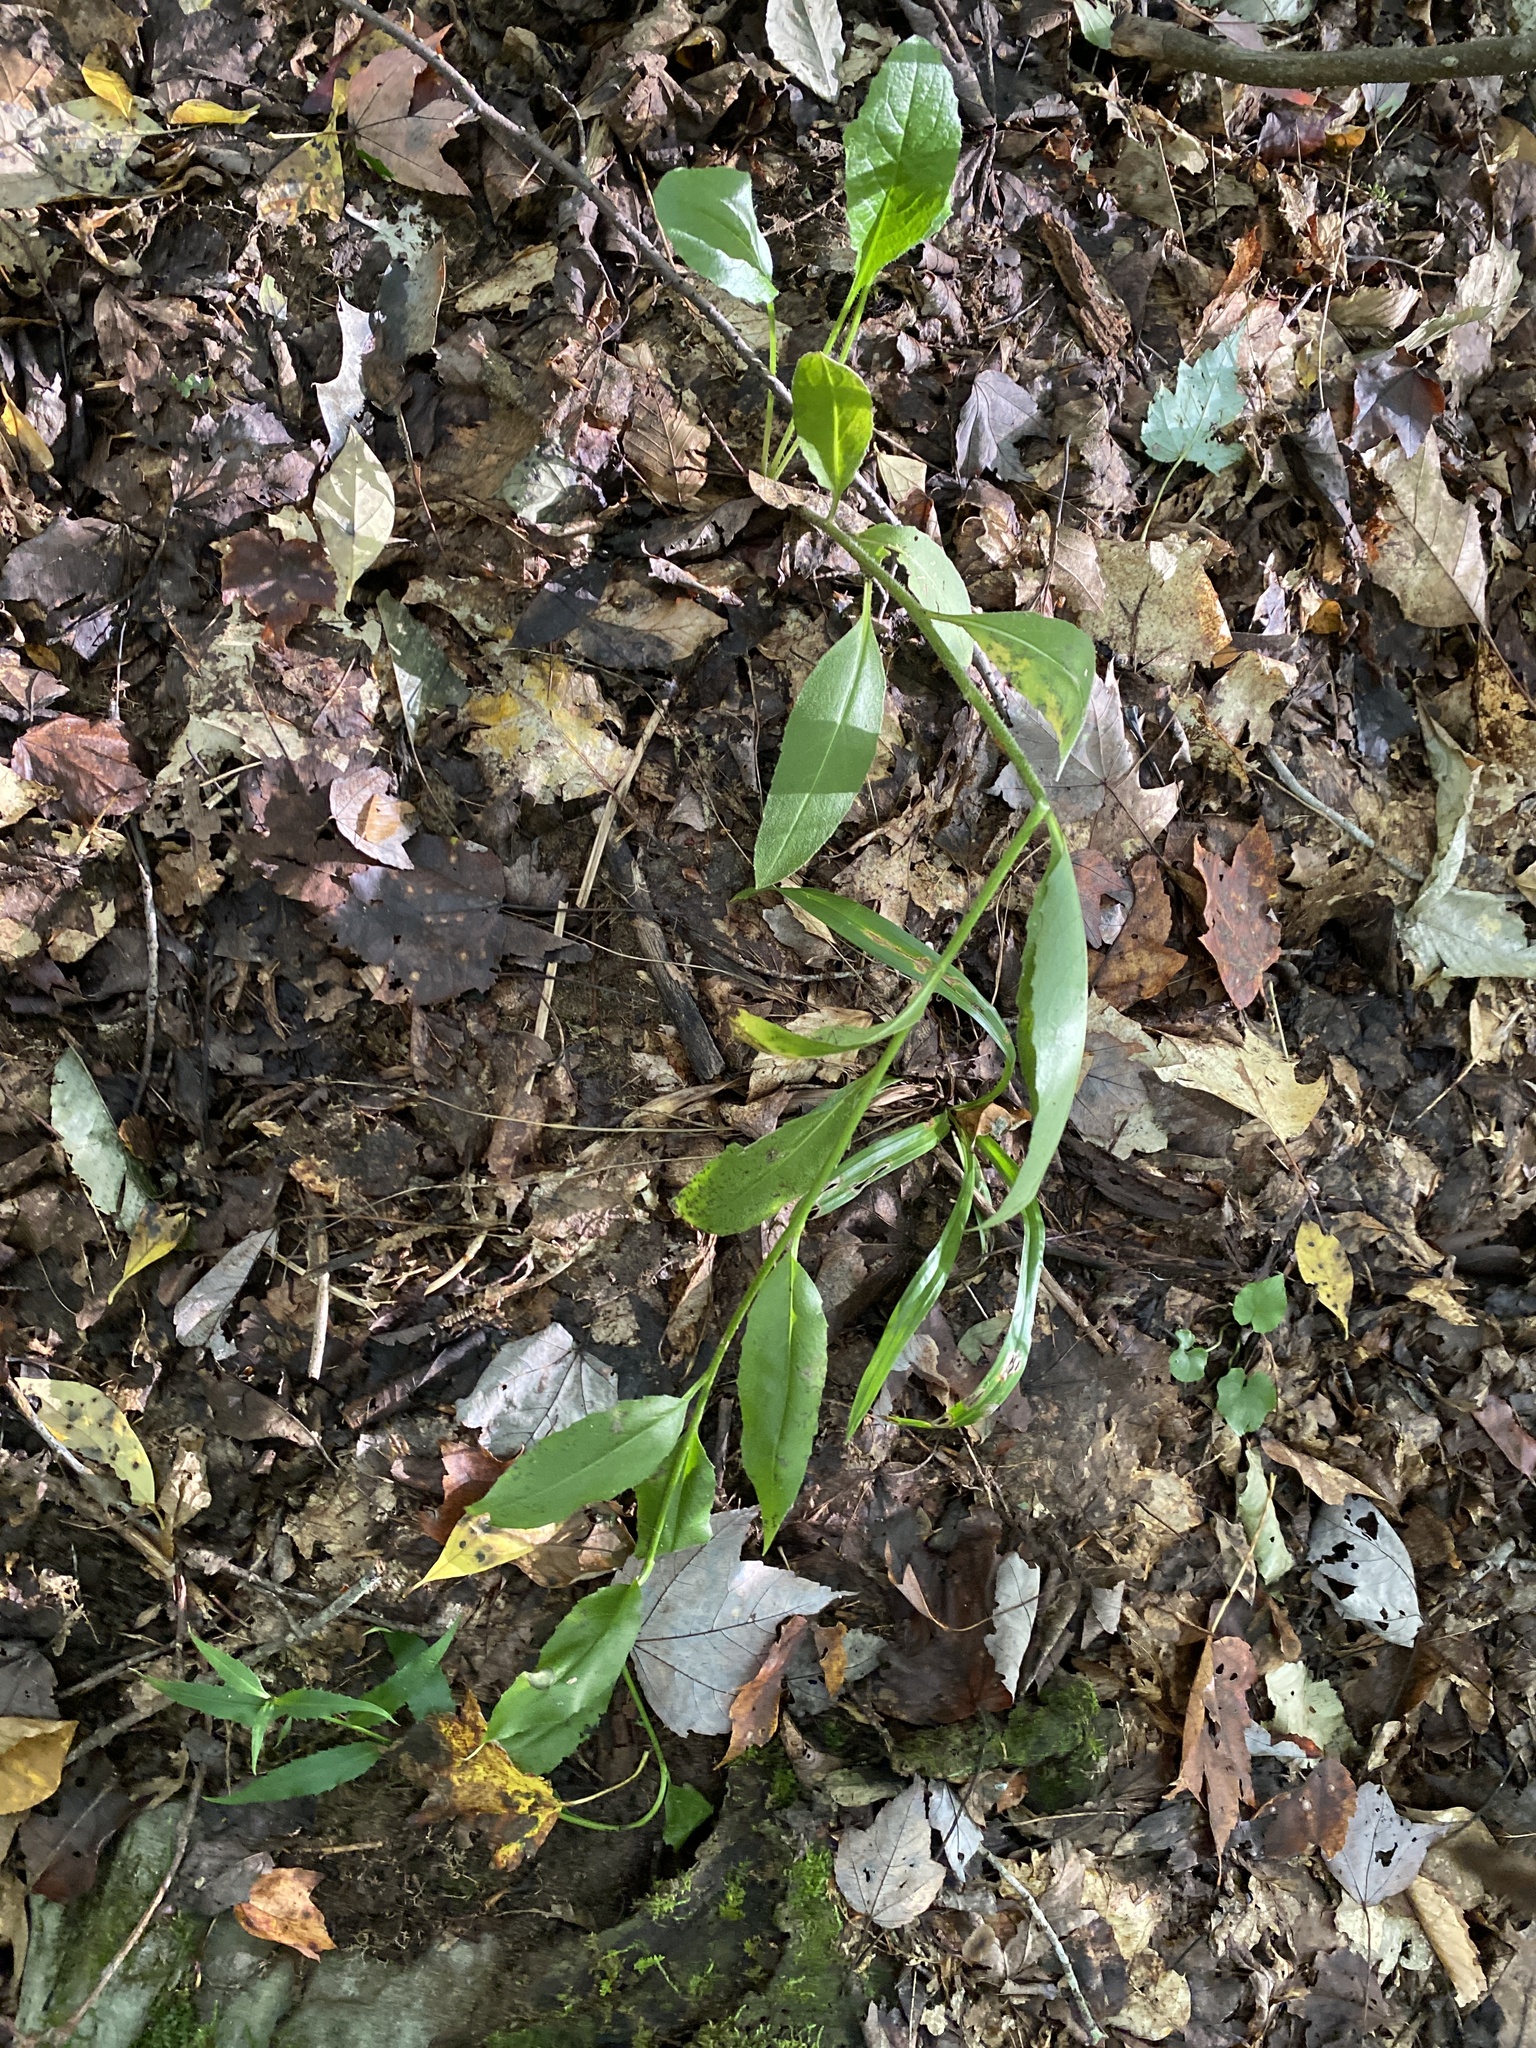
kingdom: Plantae
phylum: Tracheophyta
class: Magnoliopsida
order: Brassicales
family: Brassicaceae
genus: Hesperis
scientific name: Hesperis matronalis
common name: Dame's-violet
